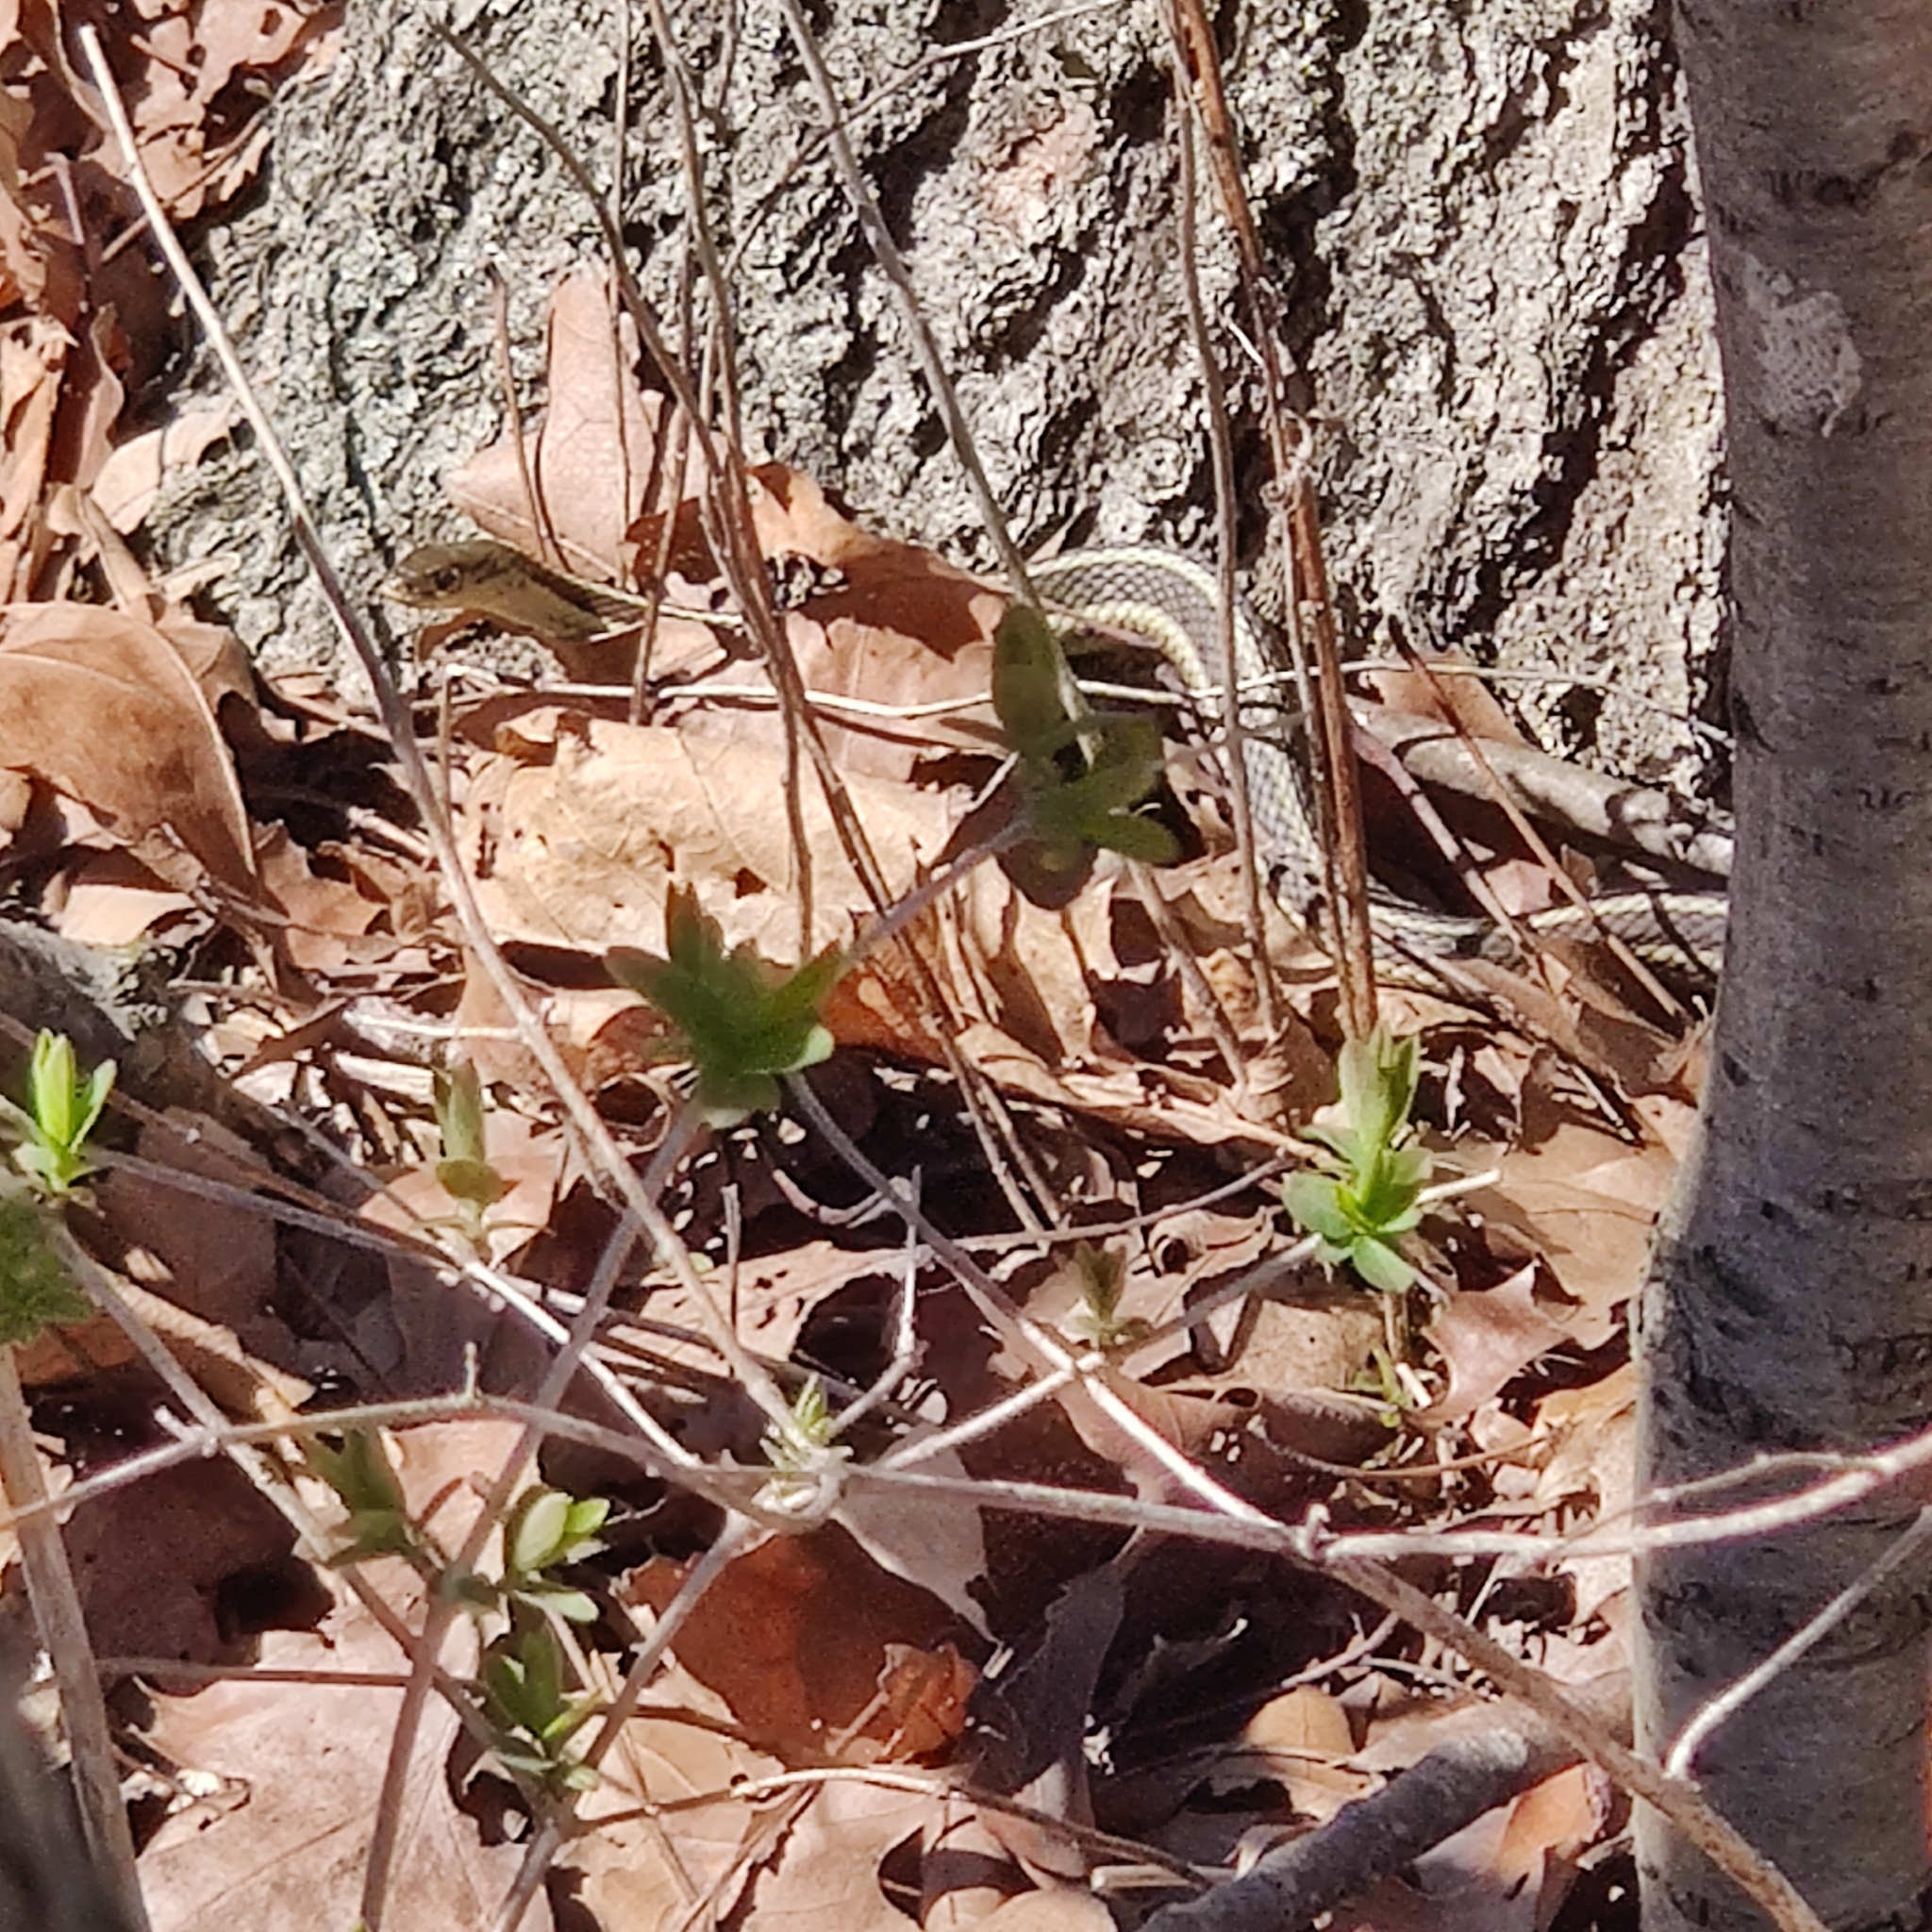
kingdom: Animalia
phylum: Chordata
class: Squamata
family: Colubridae
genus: Thamnophis
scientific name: Thamnophis sirtalis
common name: Common garter snake
